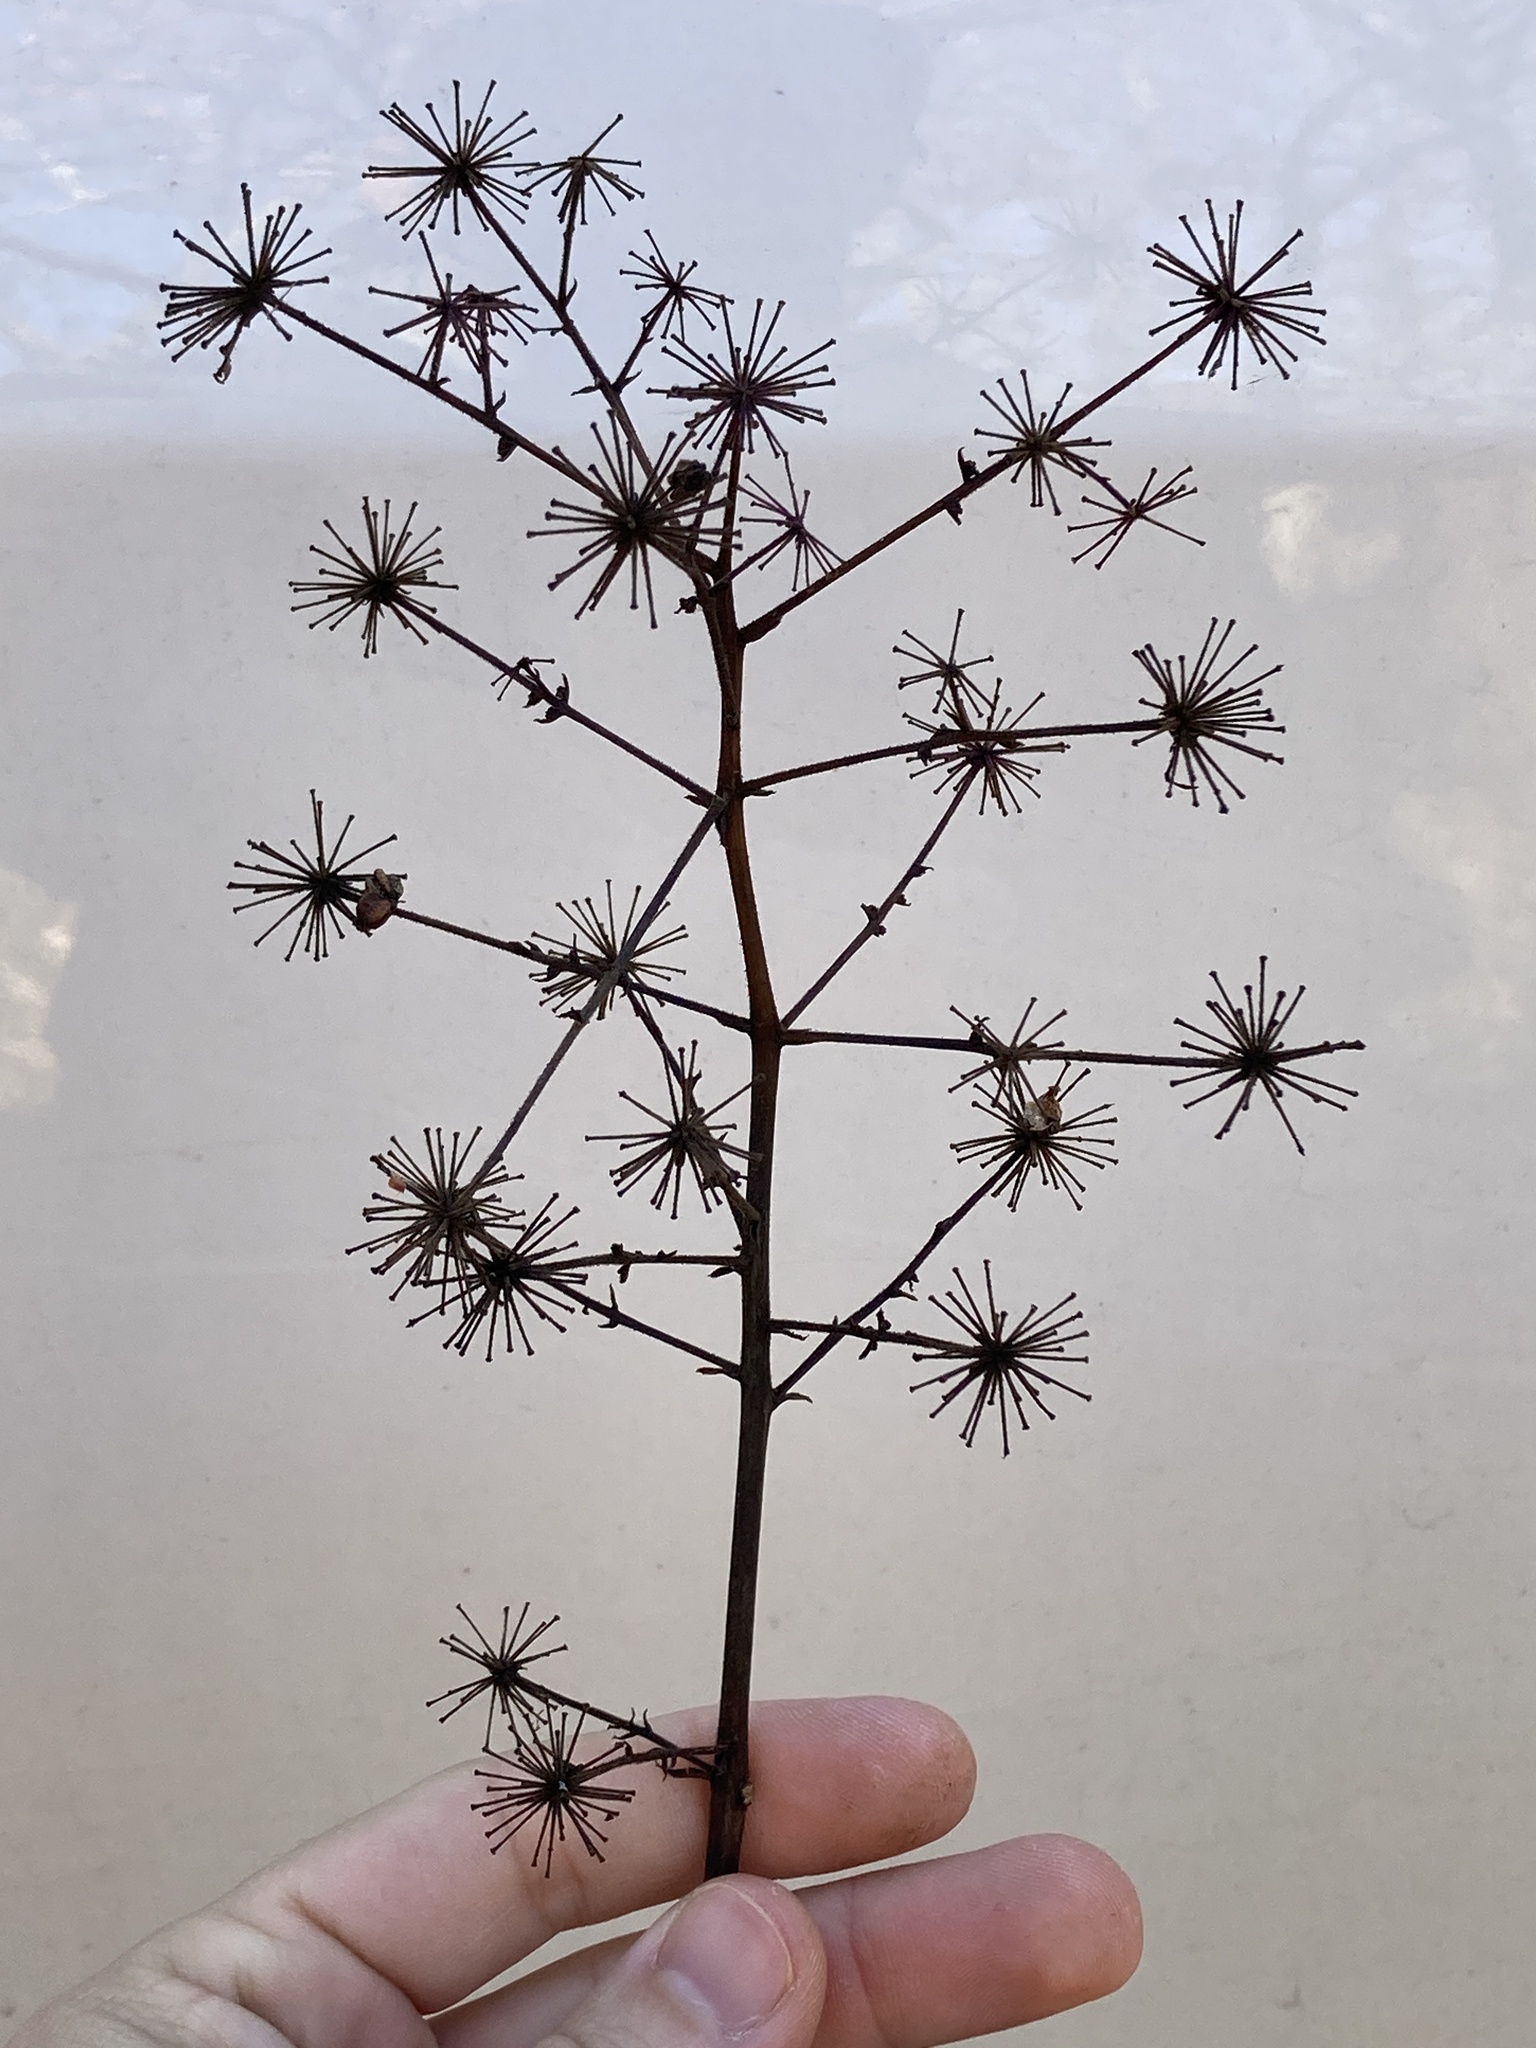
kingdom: Plantae
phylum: Tracheophyta
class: Magnoliopsida
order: Apiales
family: Araliaceae
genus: Aralia
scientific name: Aralia spinosa
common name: Hercules'-club
